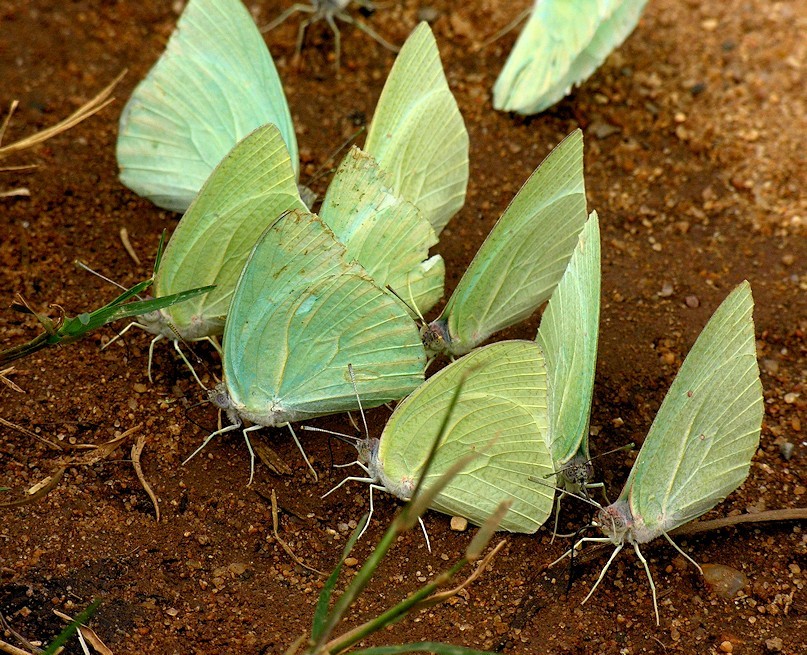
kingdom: Animalia
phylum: Arthropoda
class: Insecta
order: Lepidoptera
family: Pieridae
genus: Catopsilia
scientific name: Catopsilia florella
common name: African migrant
